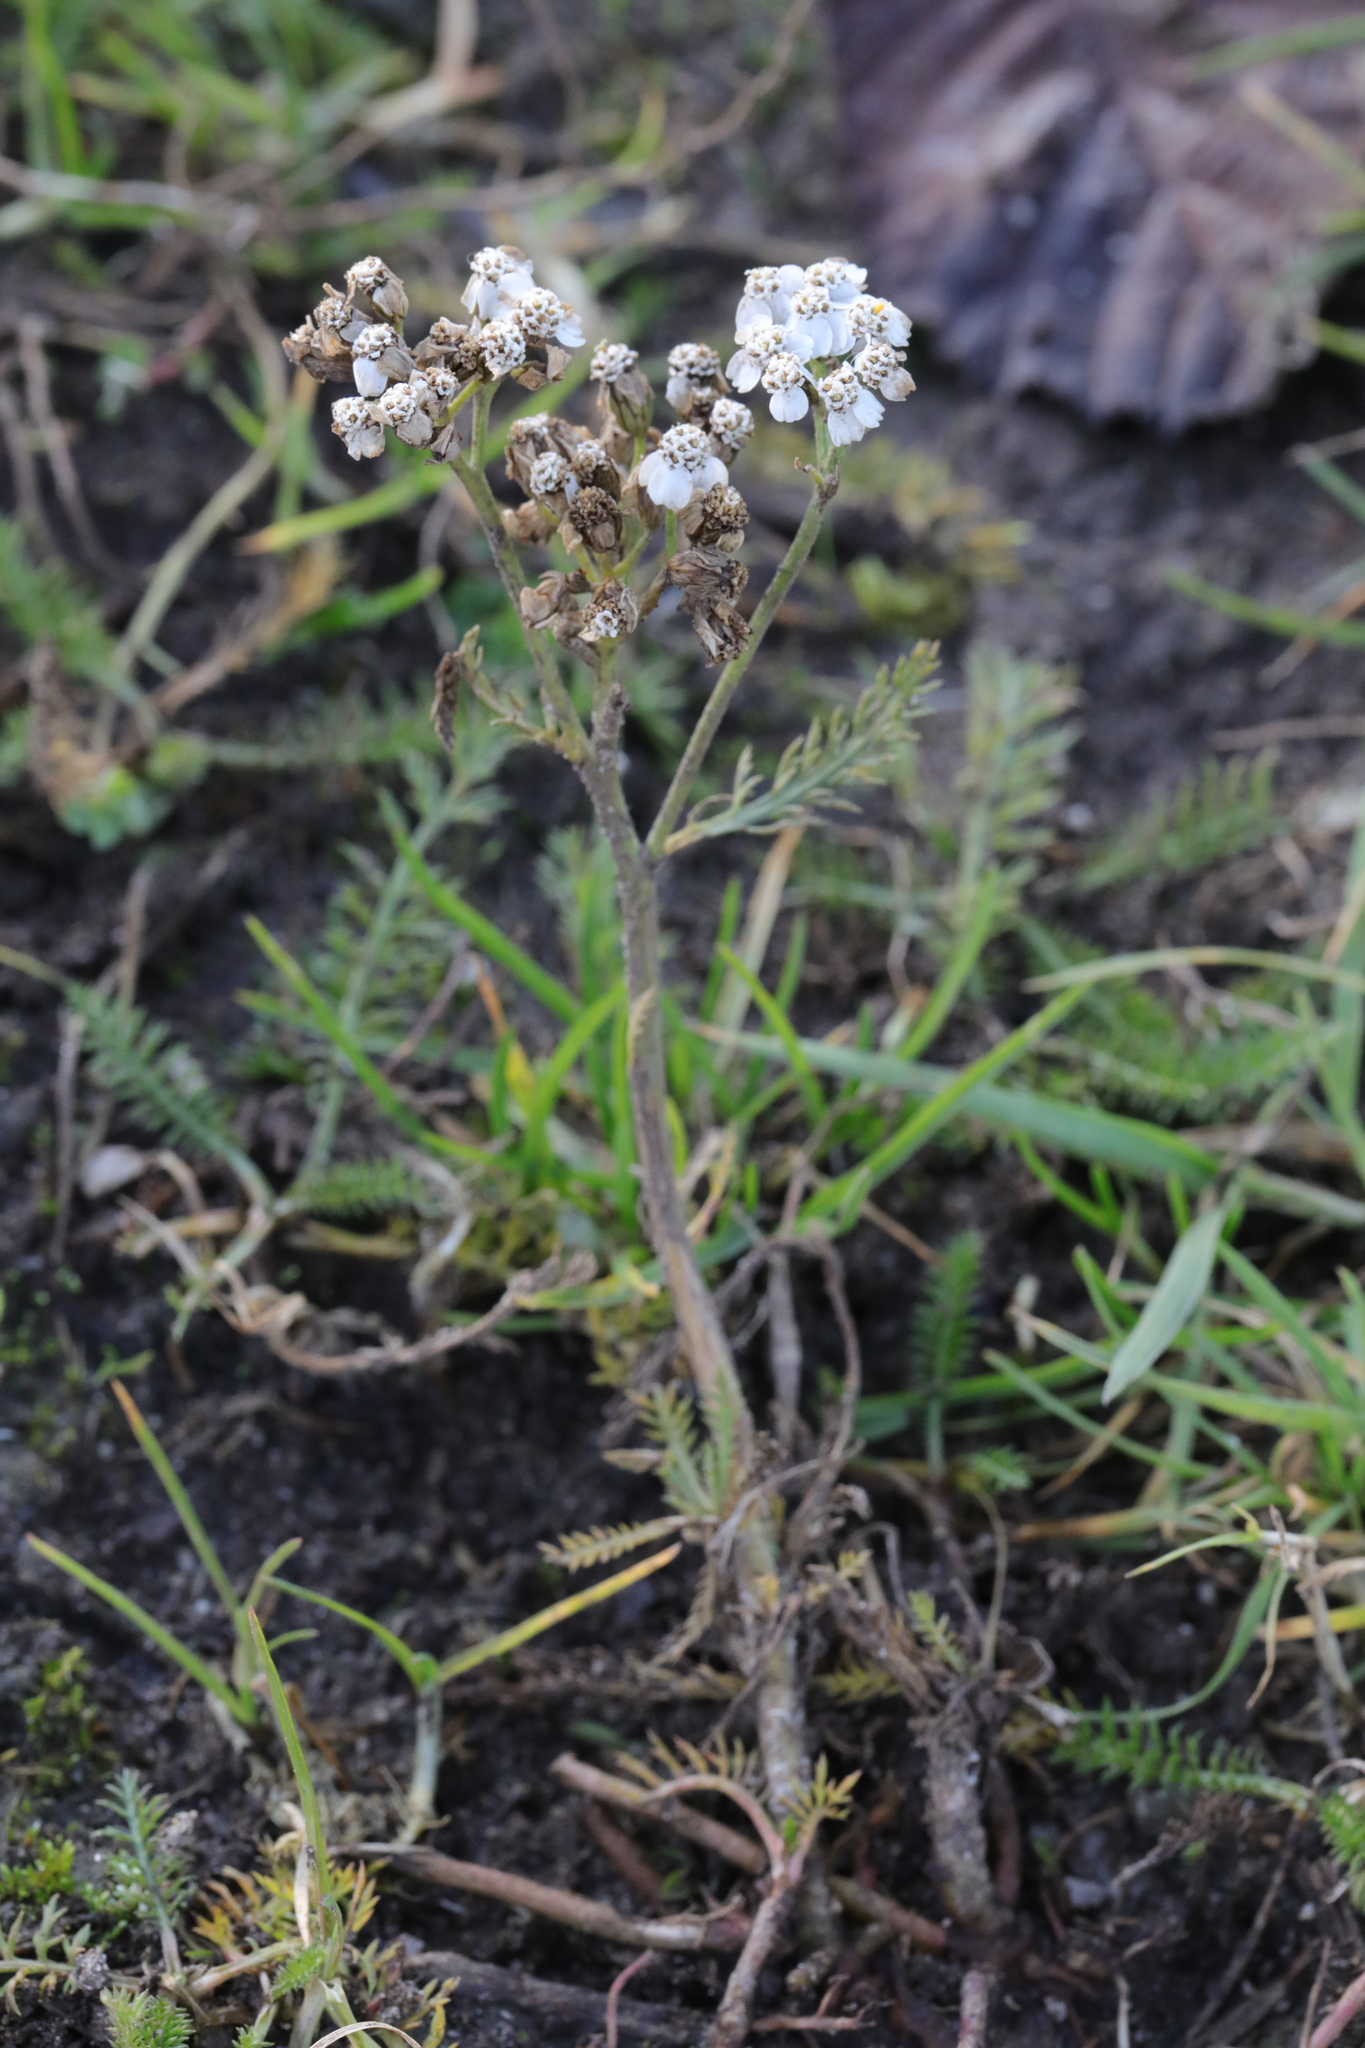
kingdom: Plantae
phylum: Tracheophyta
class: Magnoliopsida
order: Asterales
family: Asteraceae
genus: Achillea
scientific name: Achillea millefolium
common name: Yarrow
